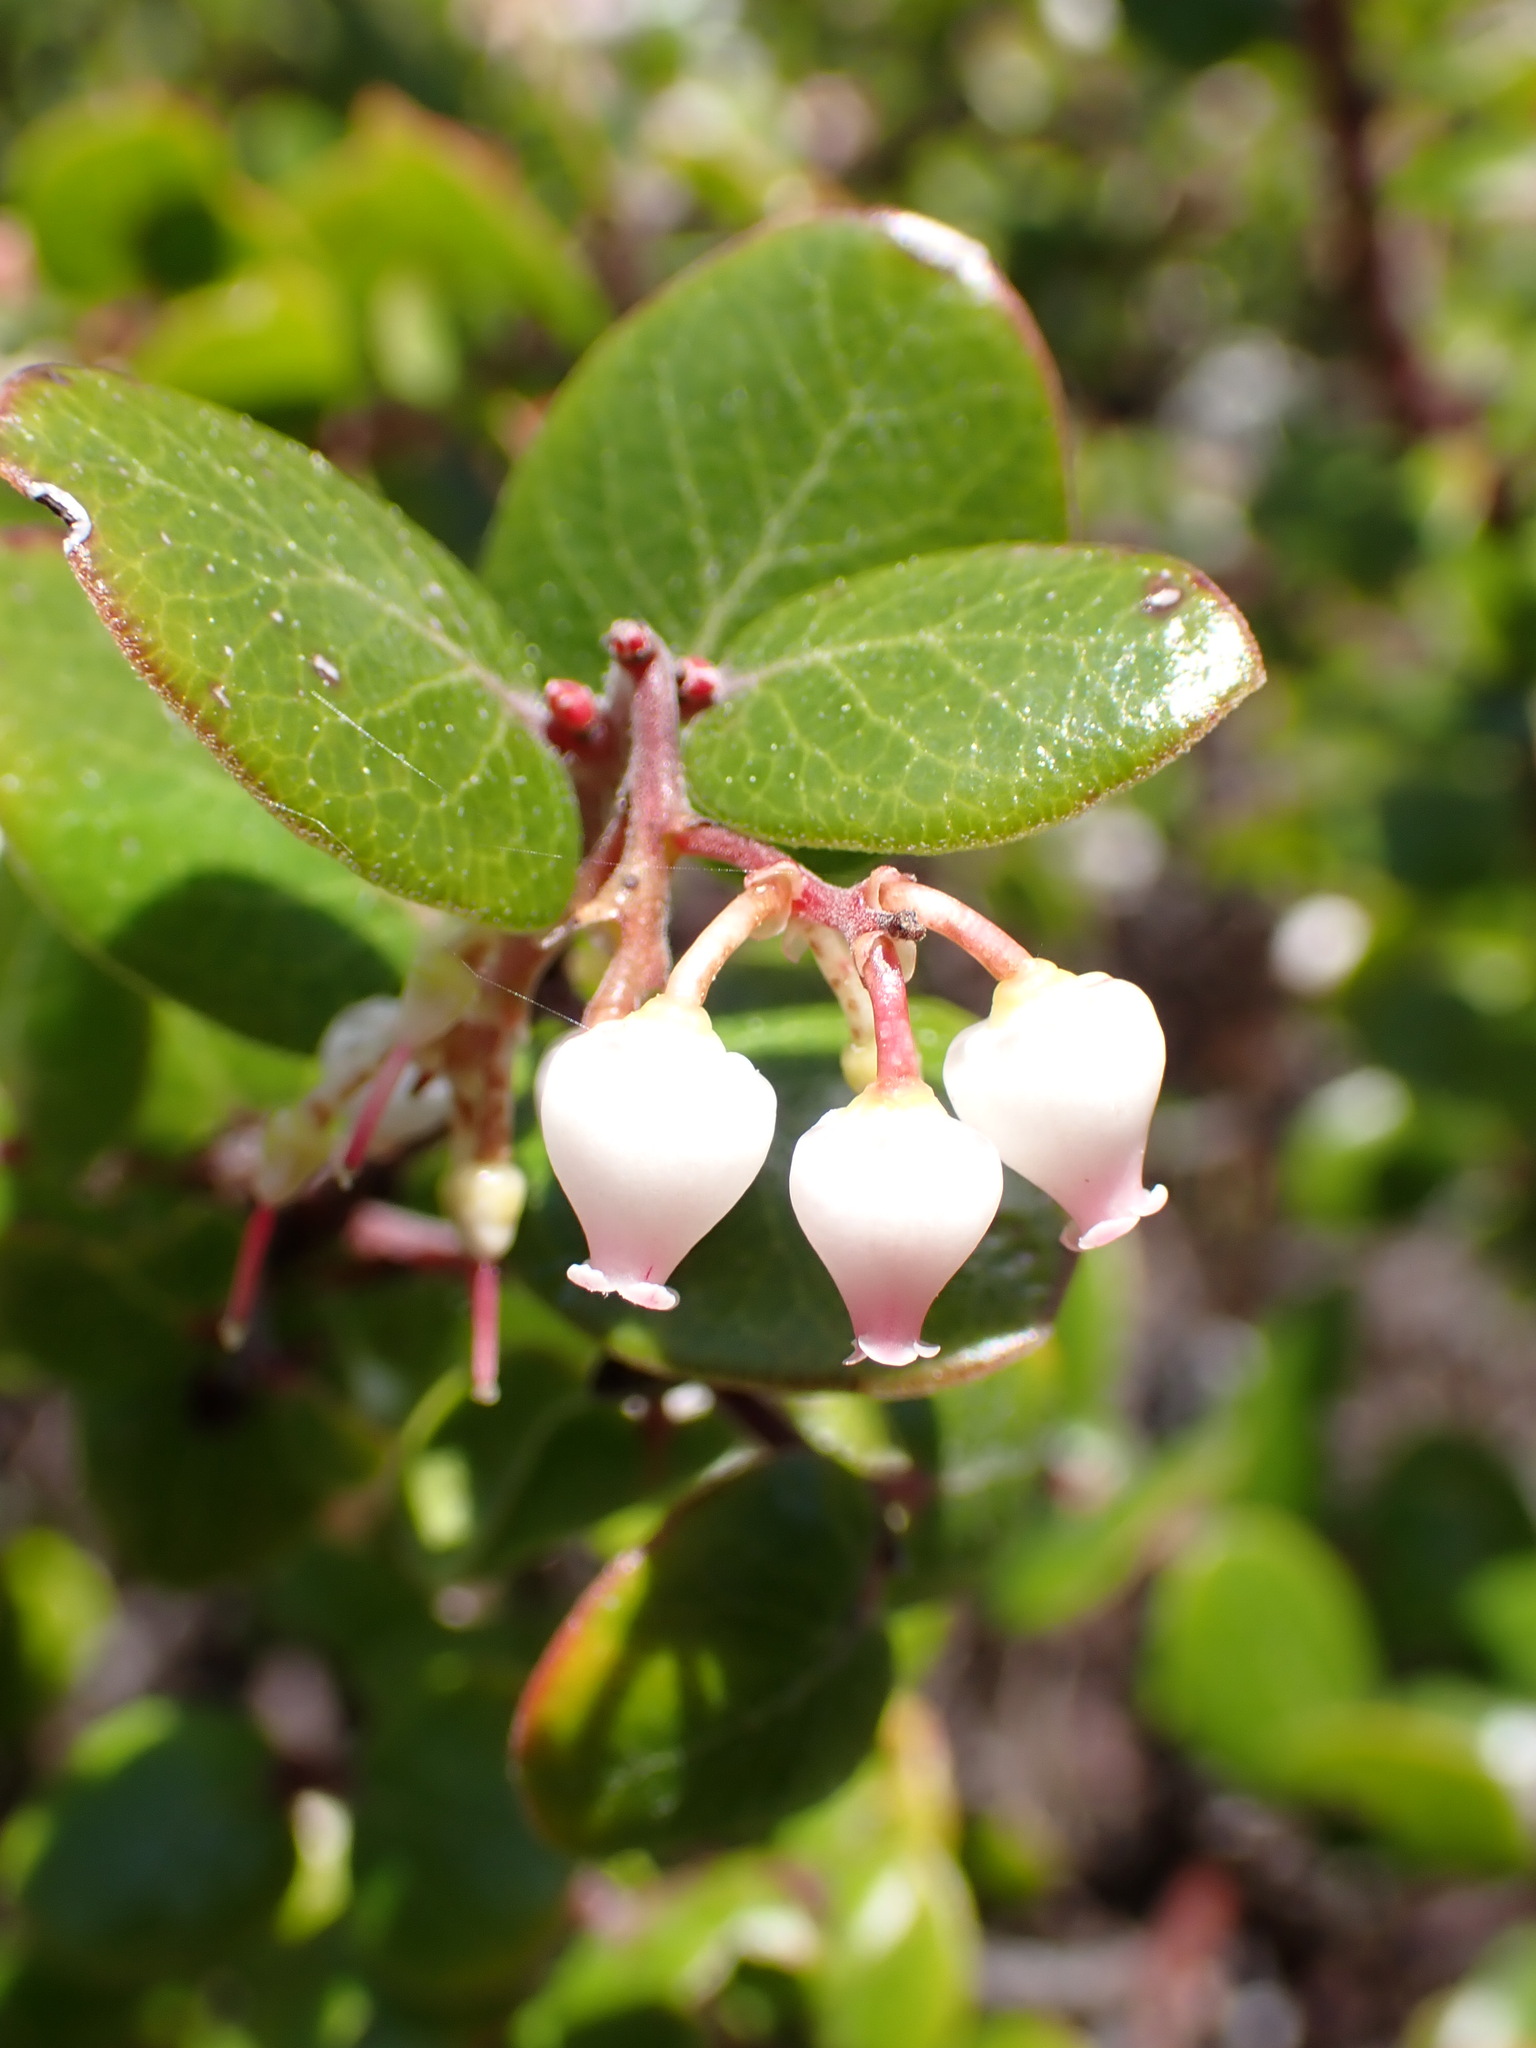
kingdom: Plantae
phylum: Tracheophyta
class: Magnoliopsida
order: Ericales
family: Ericaceae
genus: Arctostaphylos
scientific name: Arctostaphylos nummularia
